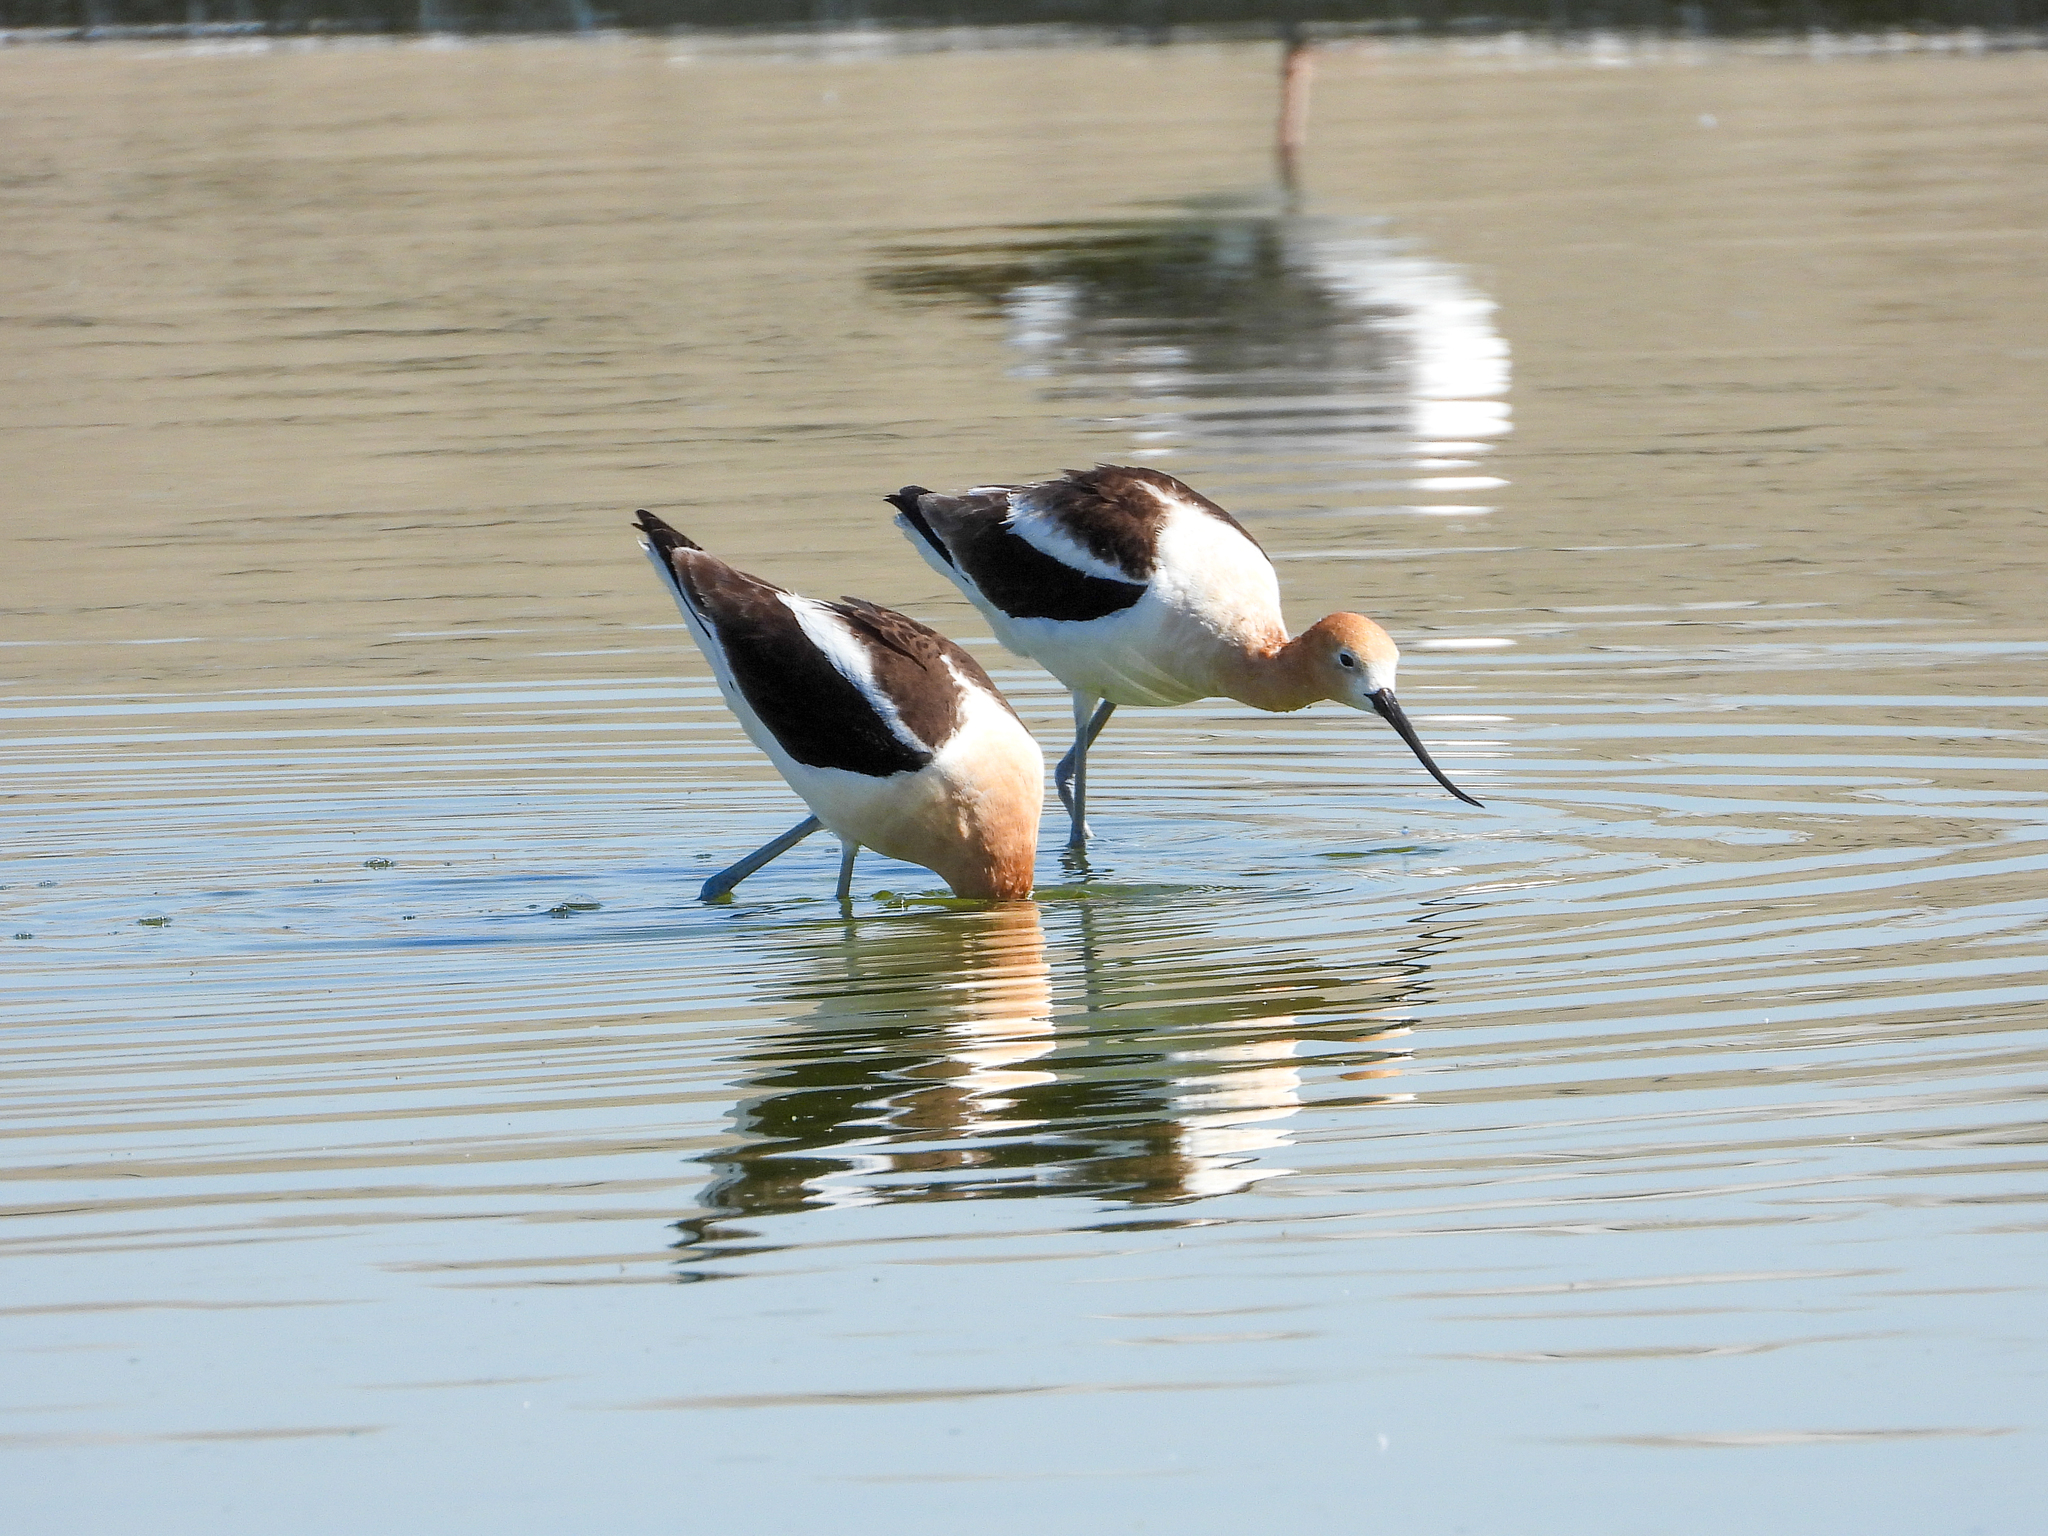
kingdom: Animalia
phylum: Chordata
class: Aves
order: Charadriiformes
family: Recurvirostridae
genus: Recurvirostra
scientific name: Recurvirostra americana
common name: American avocet
